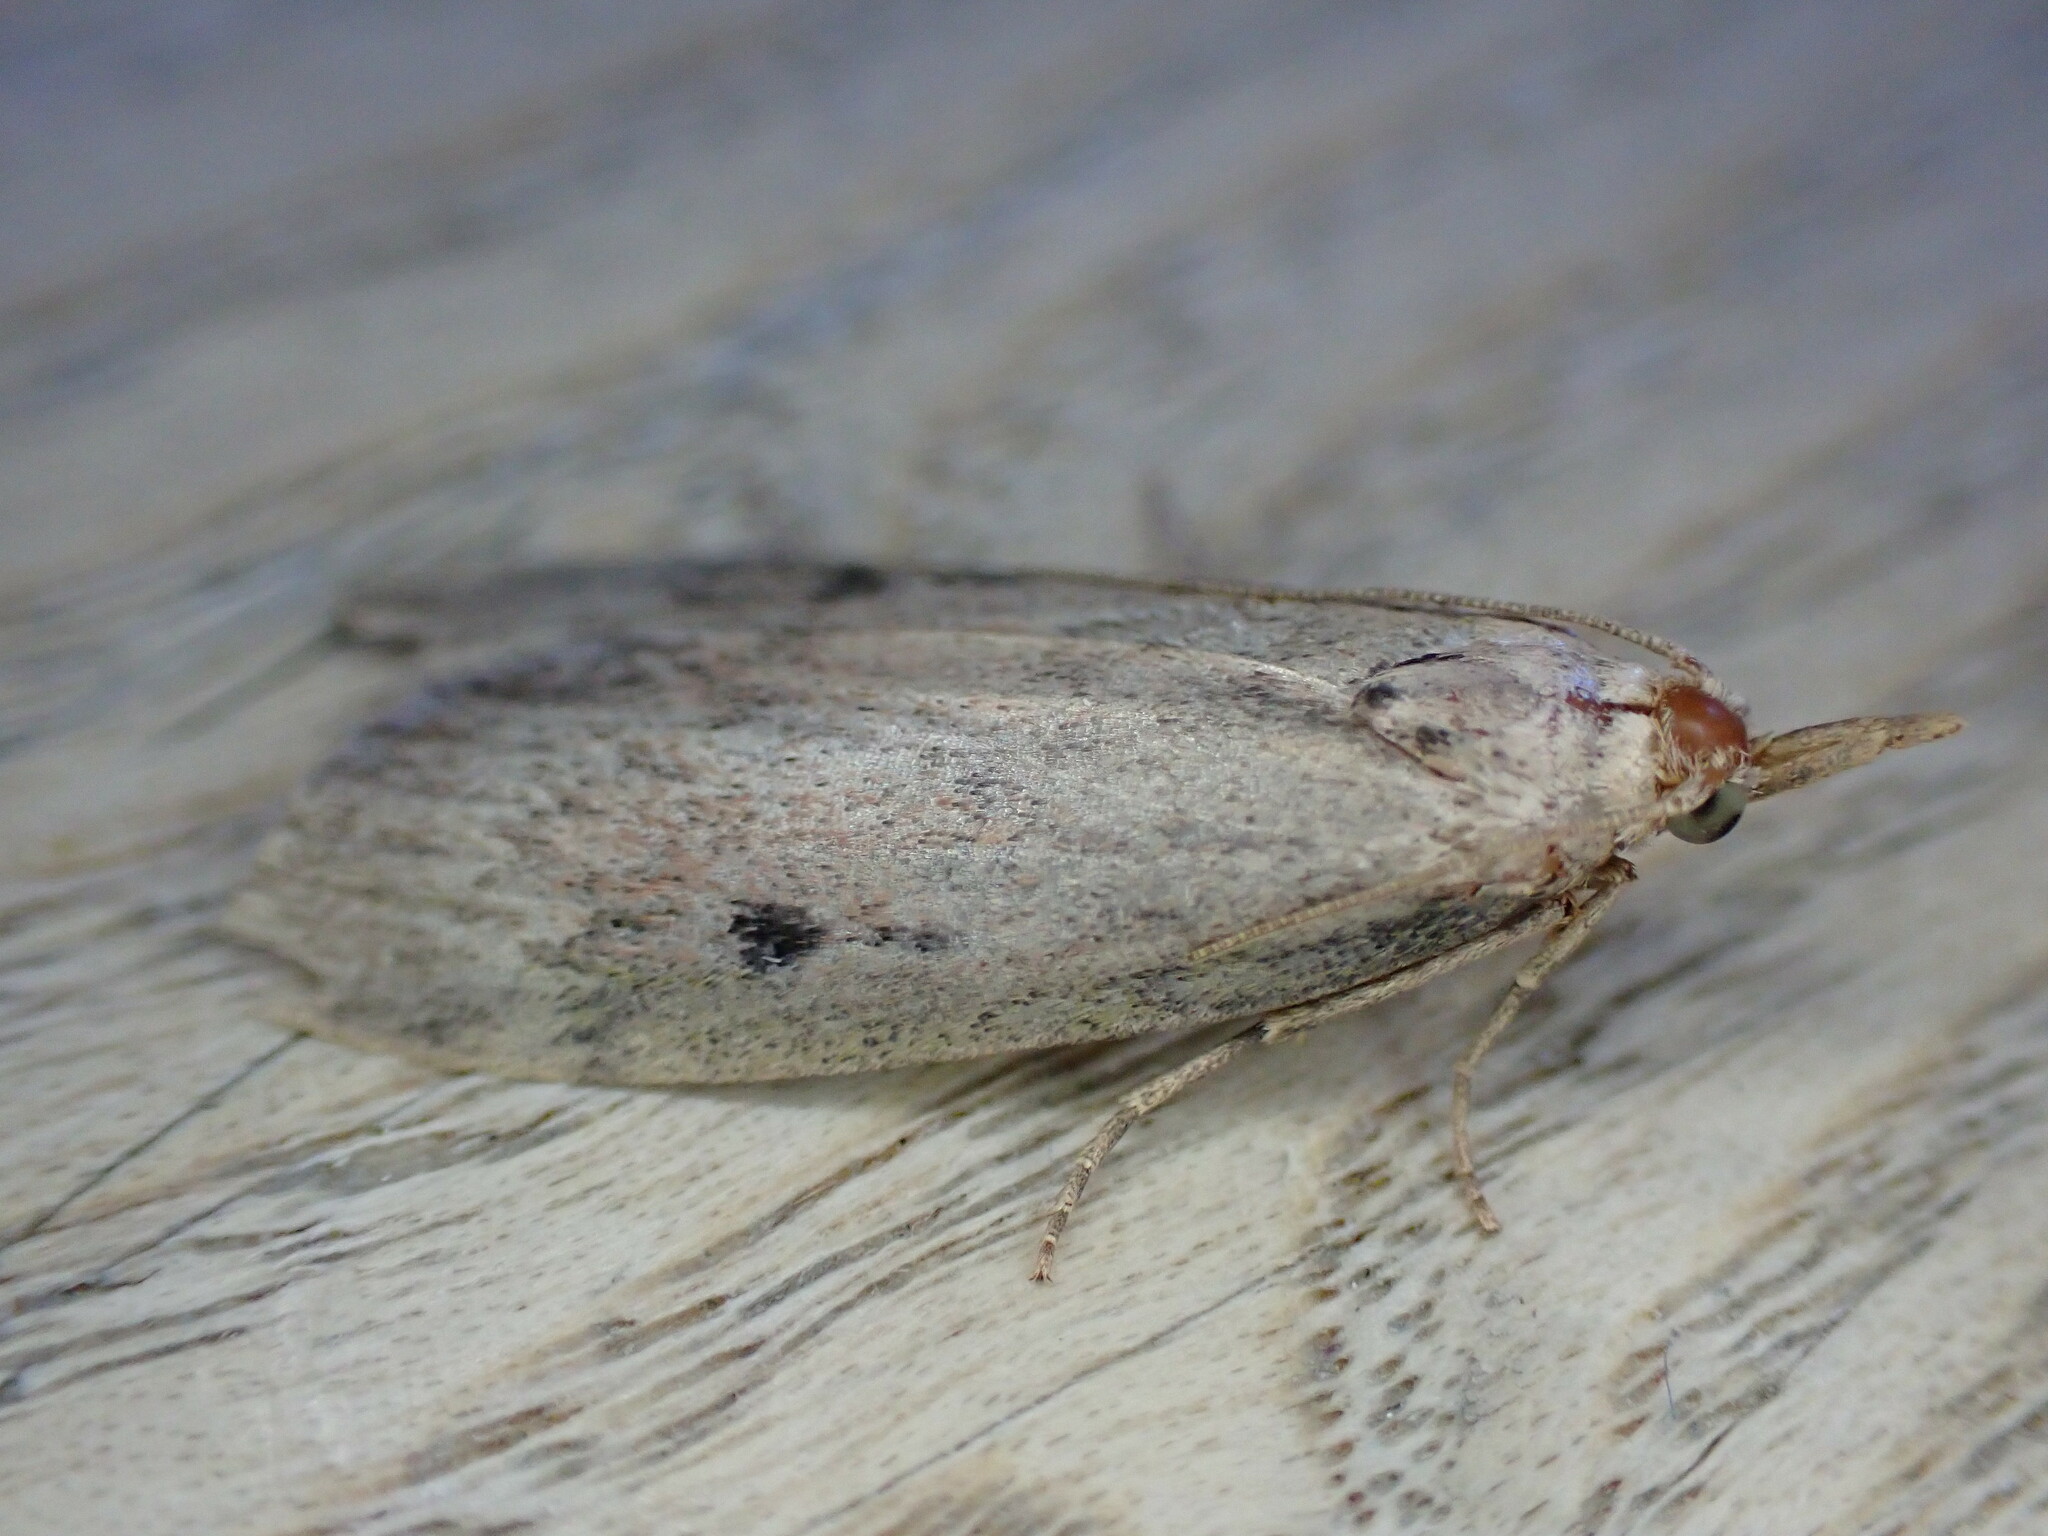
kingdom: Animalia
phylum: Arthropoda
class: Insecta
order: Lepidoptera
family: Pyralidae
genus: Aphomia
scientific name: Aphomia sociella
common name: Bee moth
